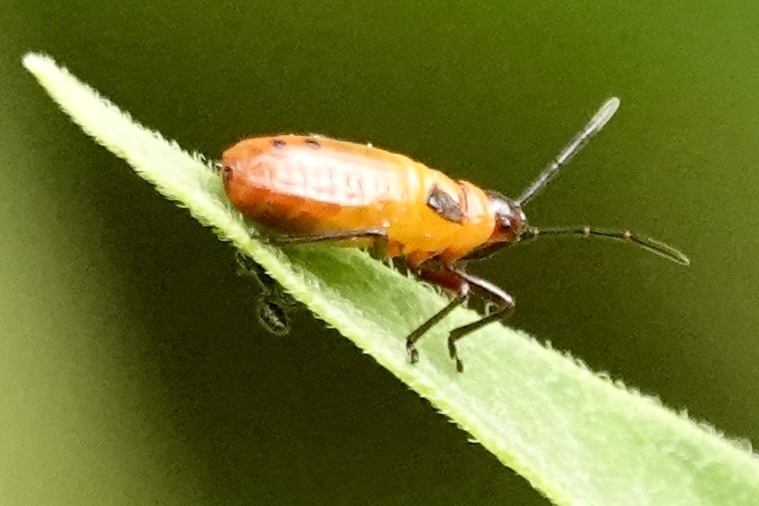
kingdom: Animalia
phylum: Arthropoda
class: Insecta
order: Hemiptera
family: Lygaeidae
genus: Oncopeltus
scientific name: Oncopeltus fasciatus
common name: Large milkweed bug
